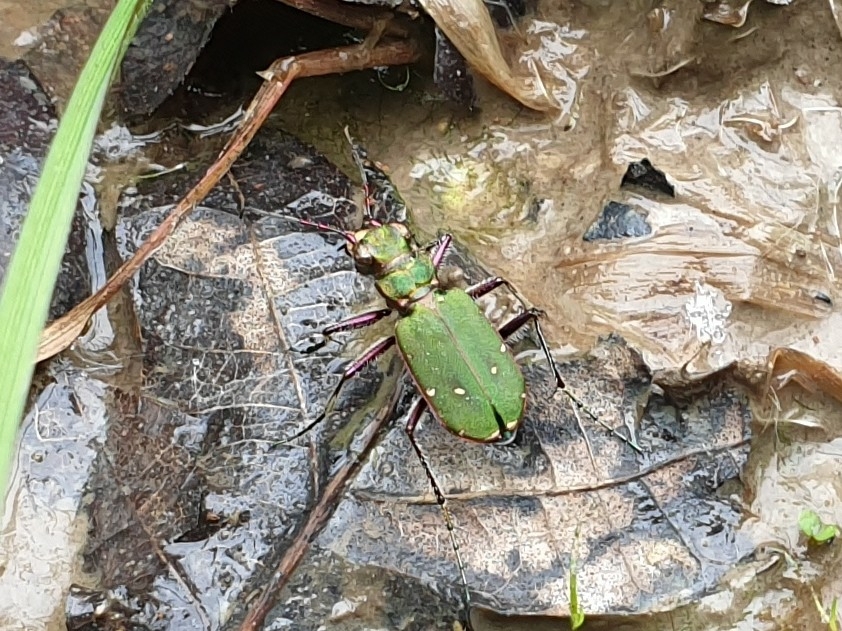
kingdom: Animalia
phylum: Arthropoda
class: Insecta
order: Coleoptera
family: Carabidae
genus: Cicindela
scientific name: Cicindela campestris
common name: Common tiger beetle
